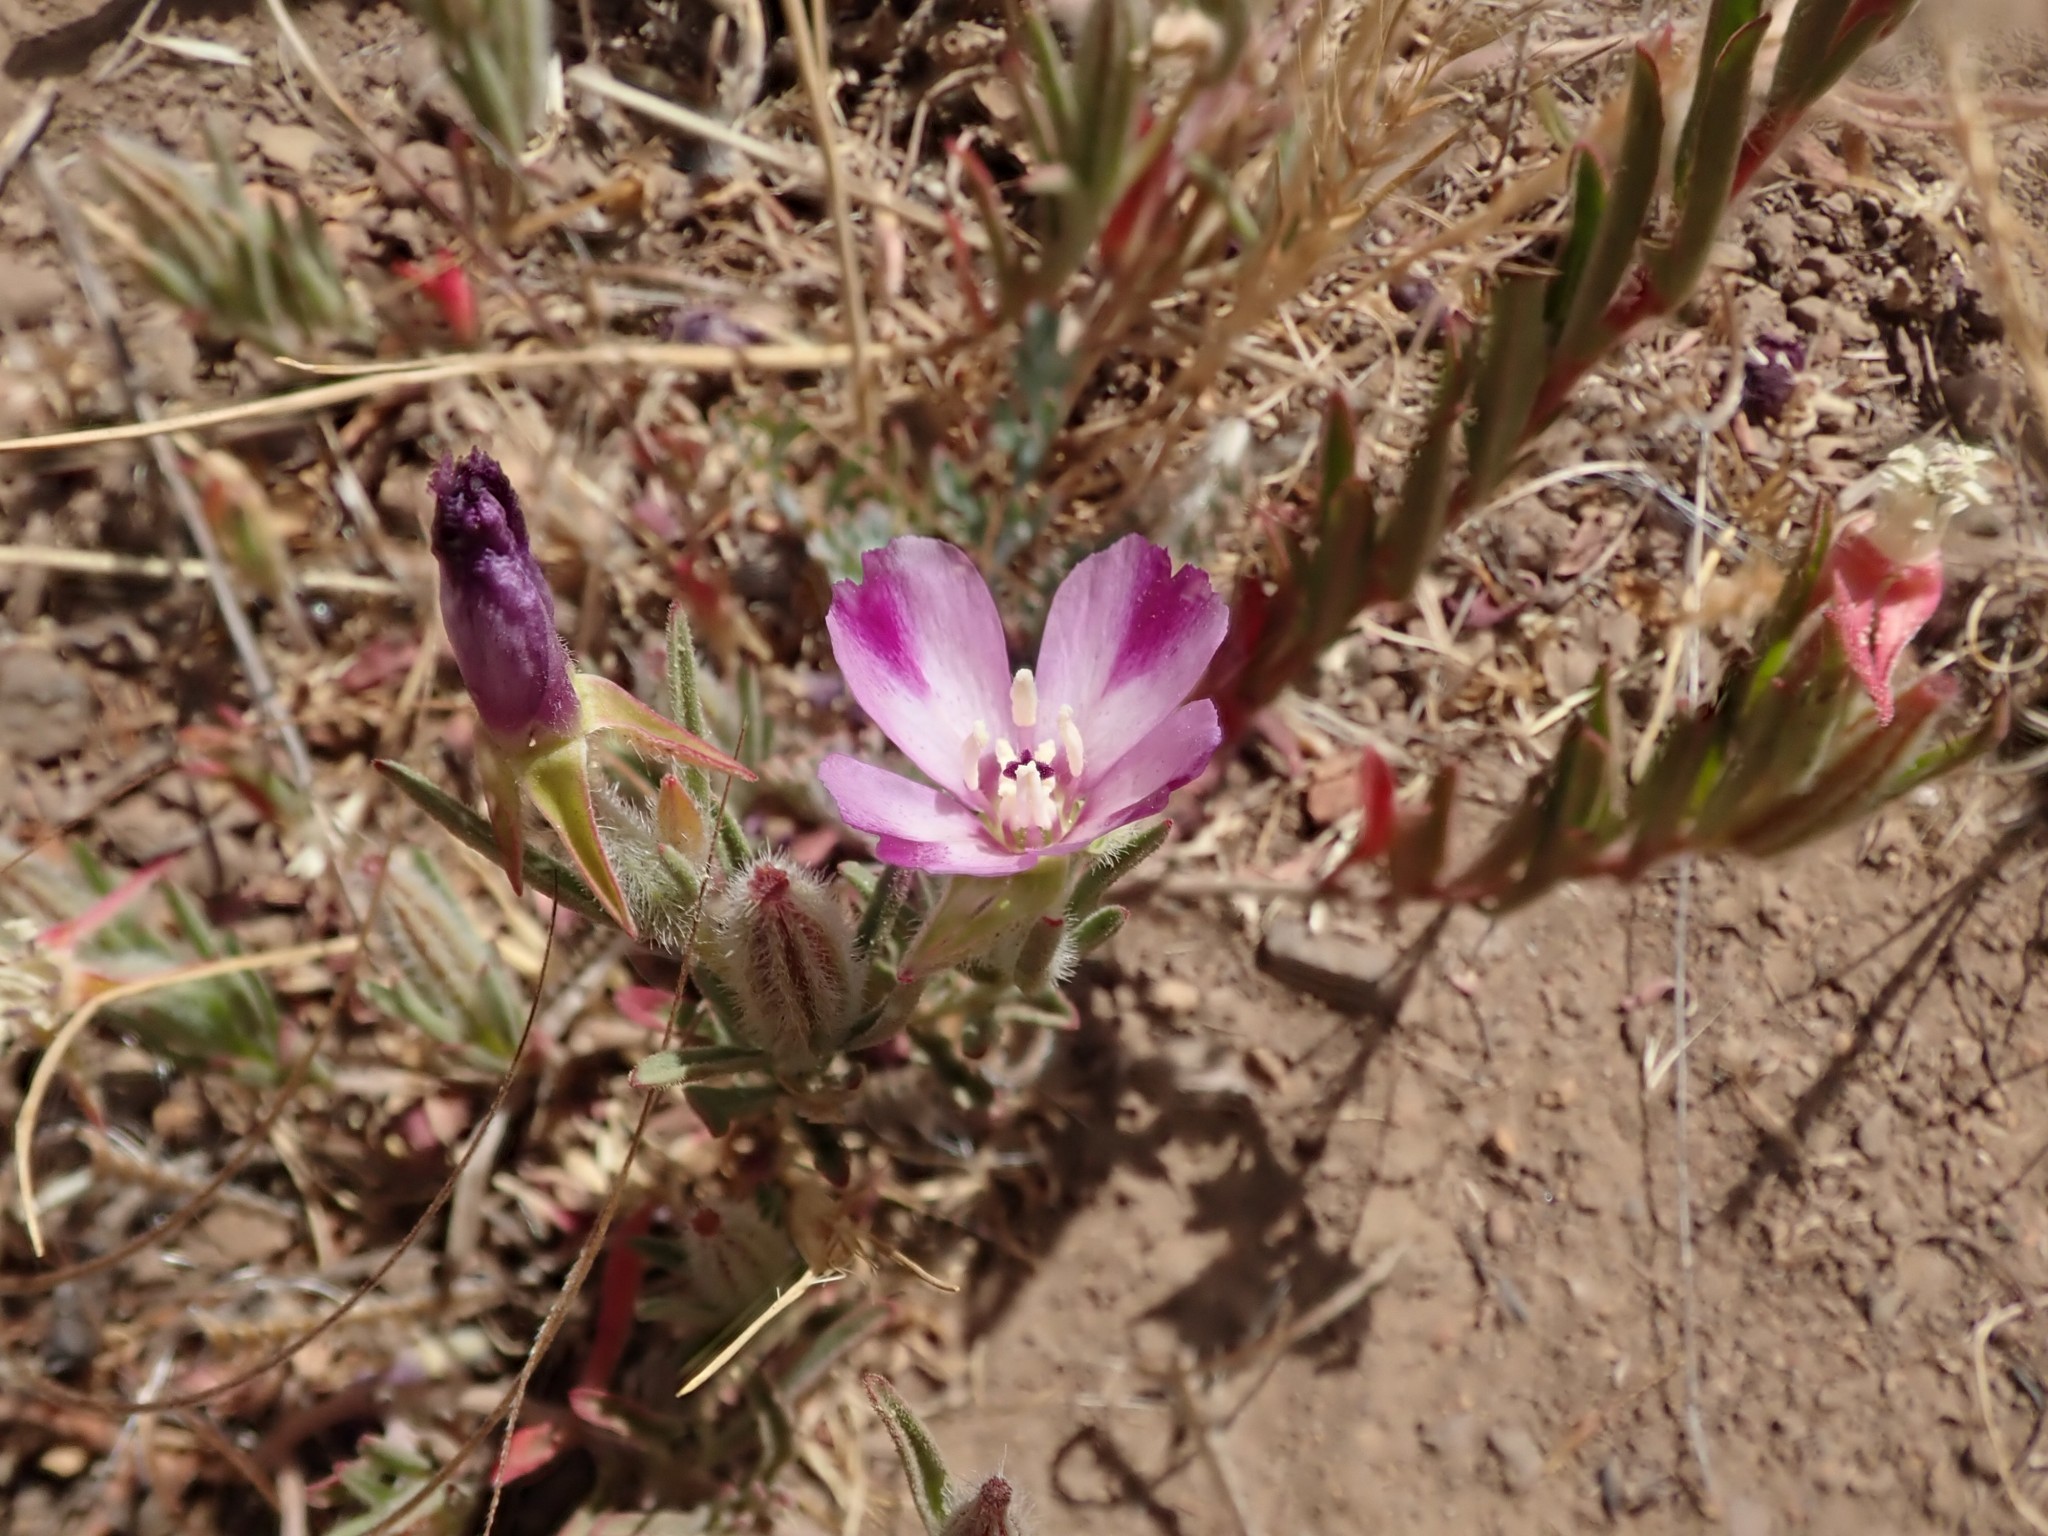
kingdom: Plantae
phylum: Tracheophyta
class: Magnoliopsida
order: Myrtales
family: Onagraceae
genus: Clarkia
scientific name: Clarkia purpurea
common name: Purple clarkia
